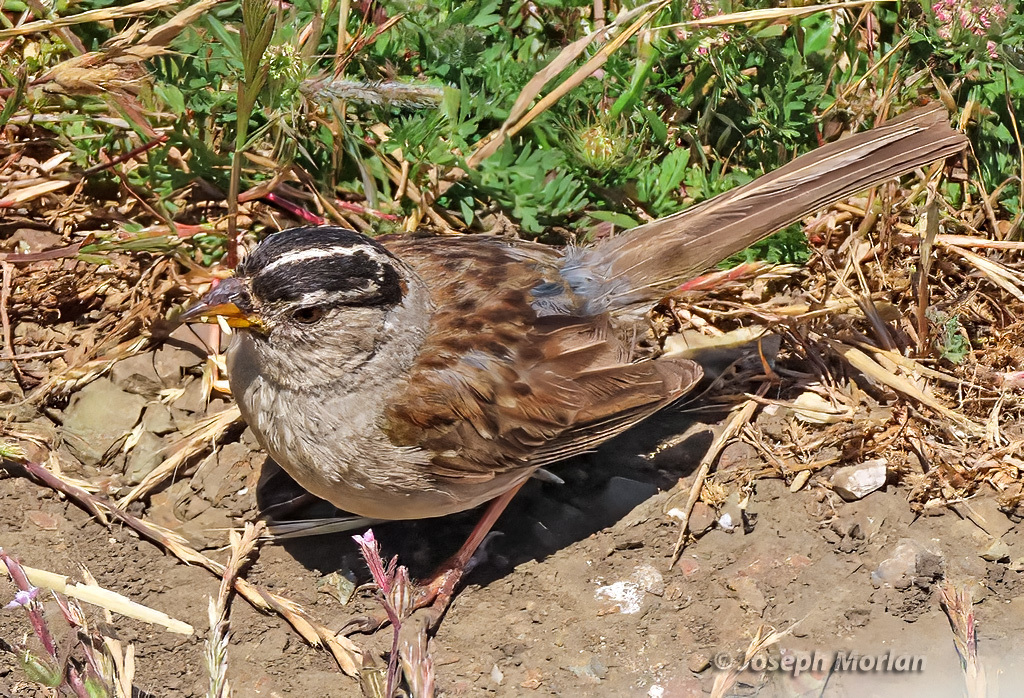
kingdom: Animalia
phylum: Chordata
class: Aves
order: Passeriformes
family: Passerellidae
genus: Zonotrichia
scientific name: Zonotrichia leucophrys
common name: White-crowned sparrow
